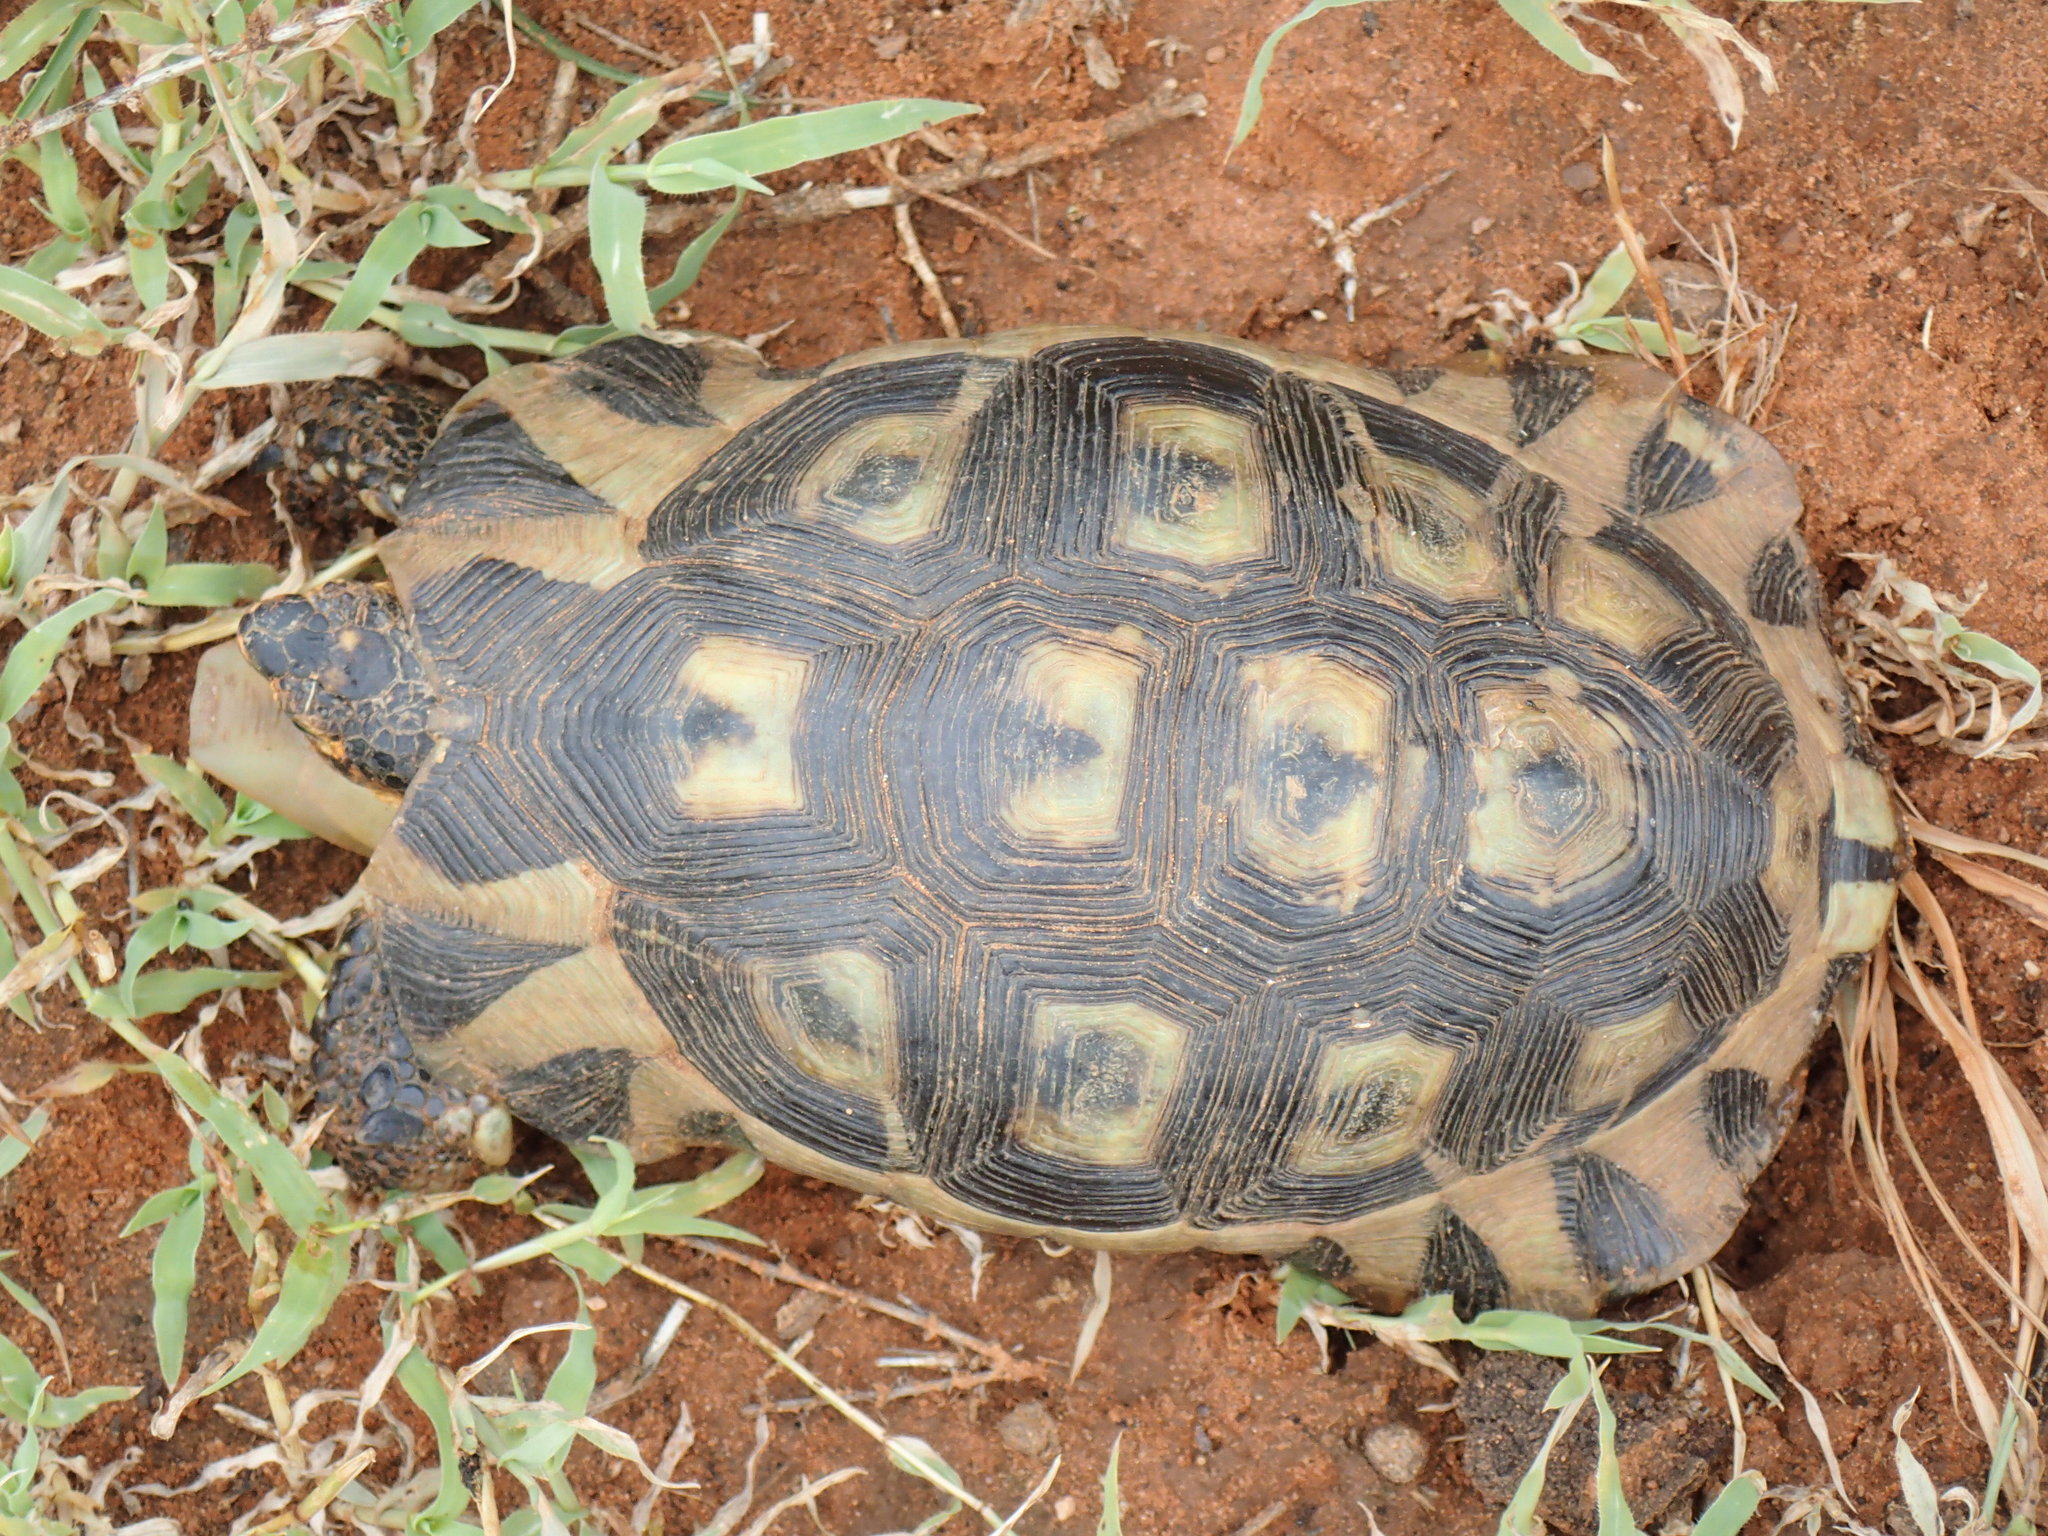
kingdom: Animalia
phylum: Chordata
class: Testudines
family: Testudinidae
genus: Chersina
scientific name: Chersina angulata
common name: South african bowsprit tortoise
